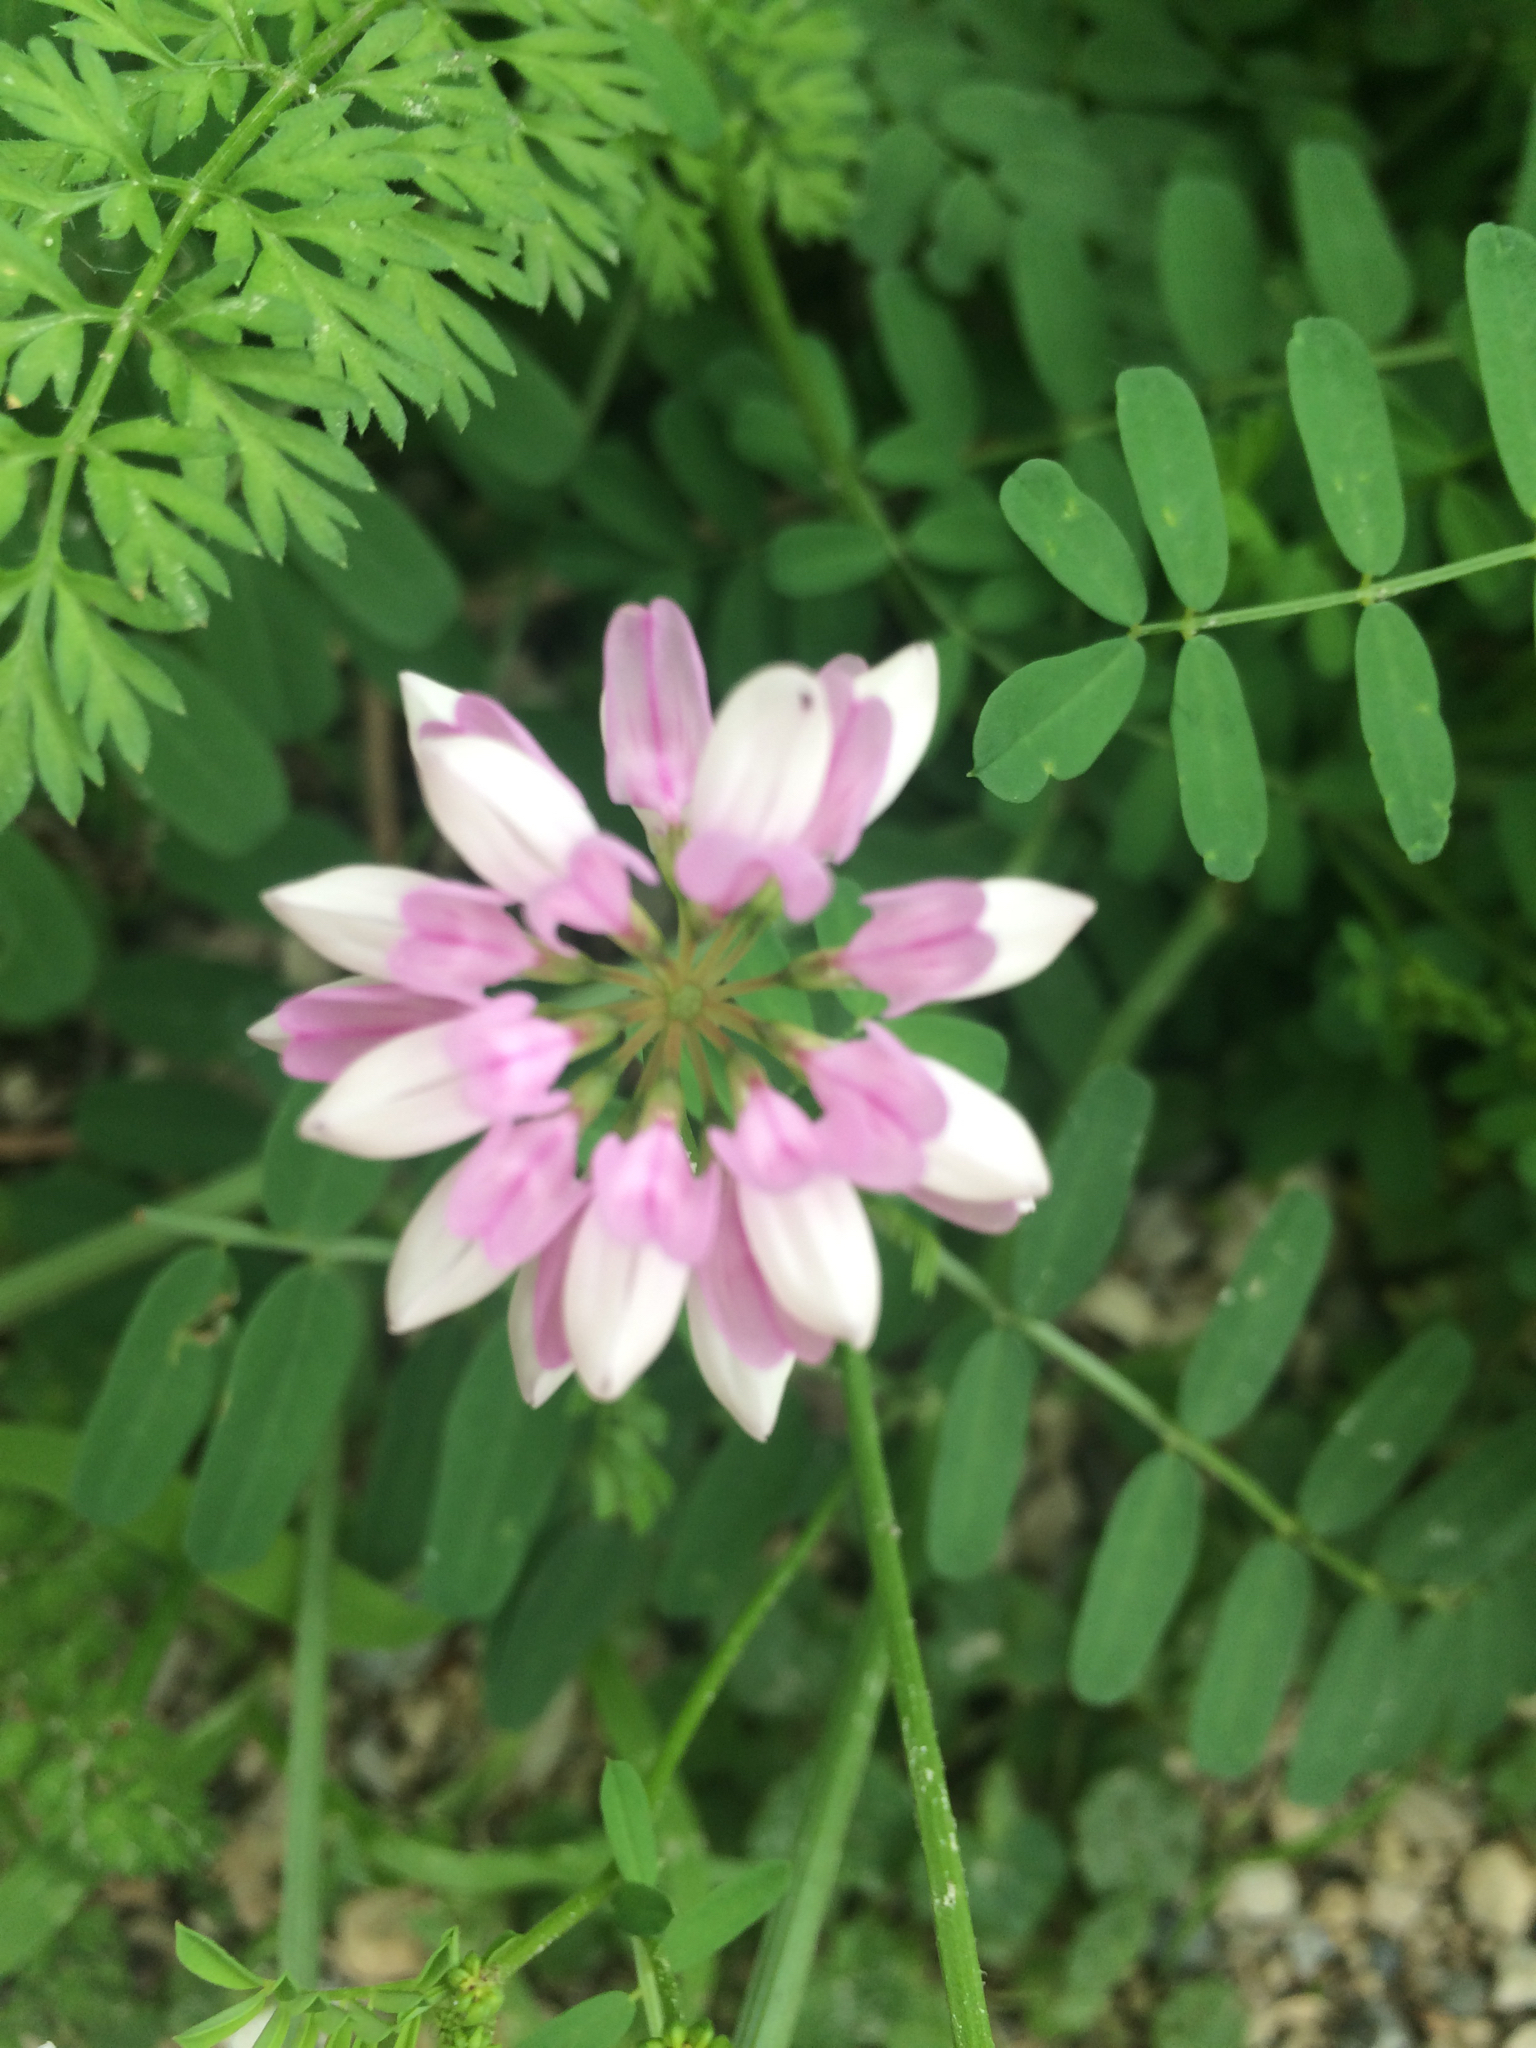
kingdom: Plantae
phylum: Tracheophyta
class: Magnoliopsida
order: Fabales
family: Fabaceae
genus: Coronilla
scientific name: Coronilla varia
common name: Crownvetch
